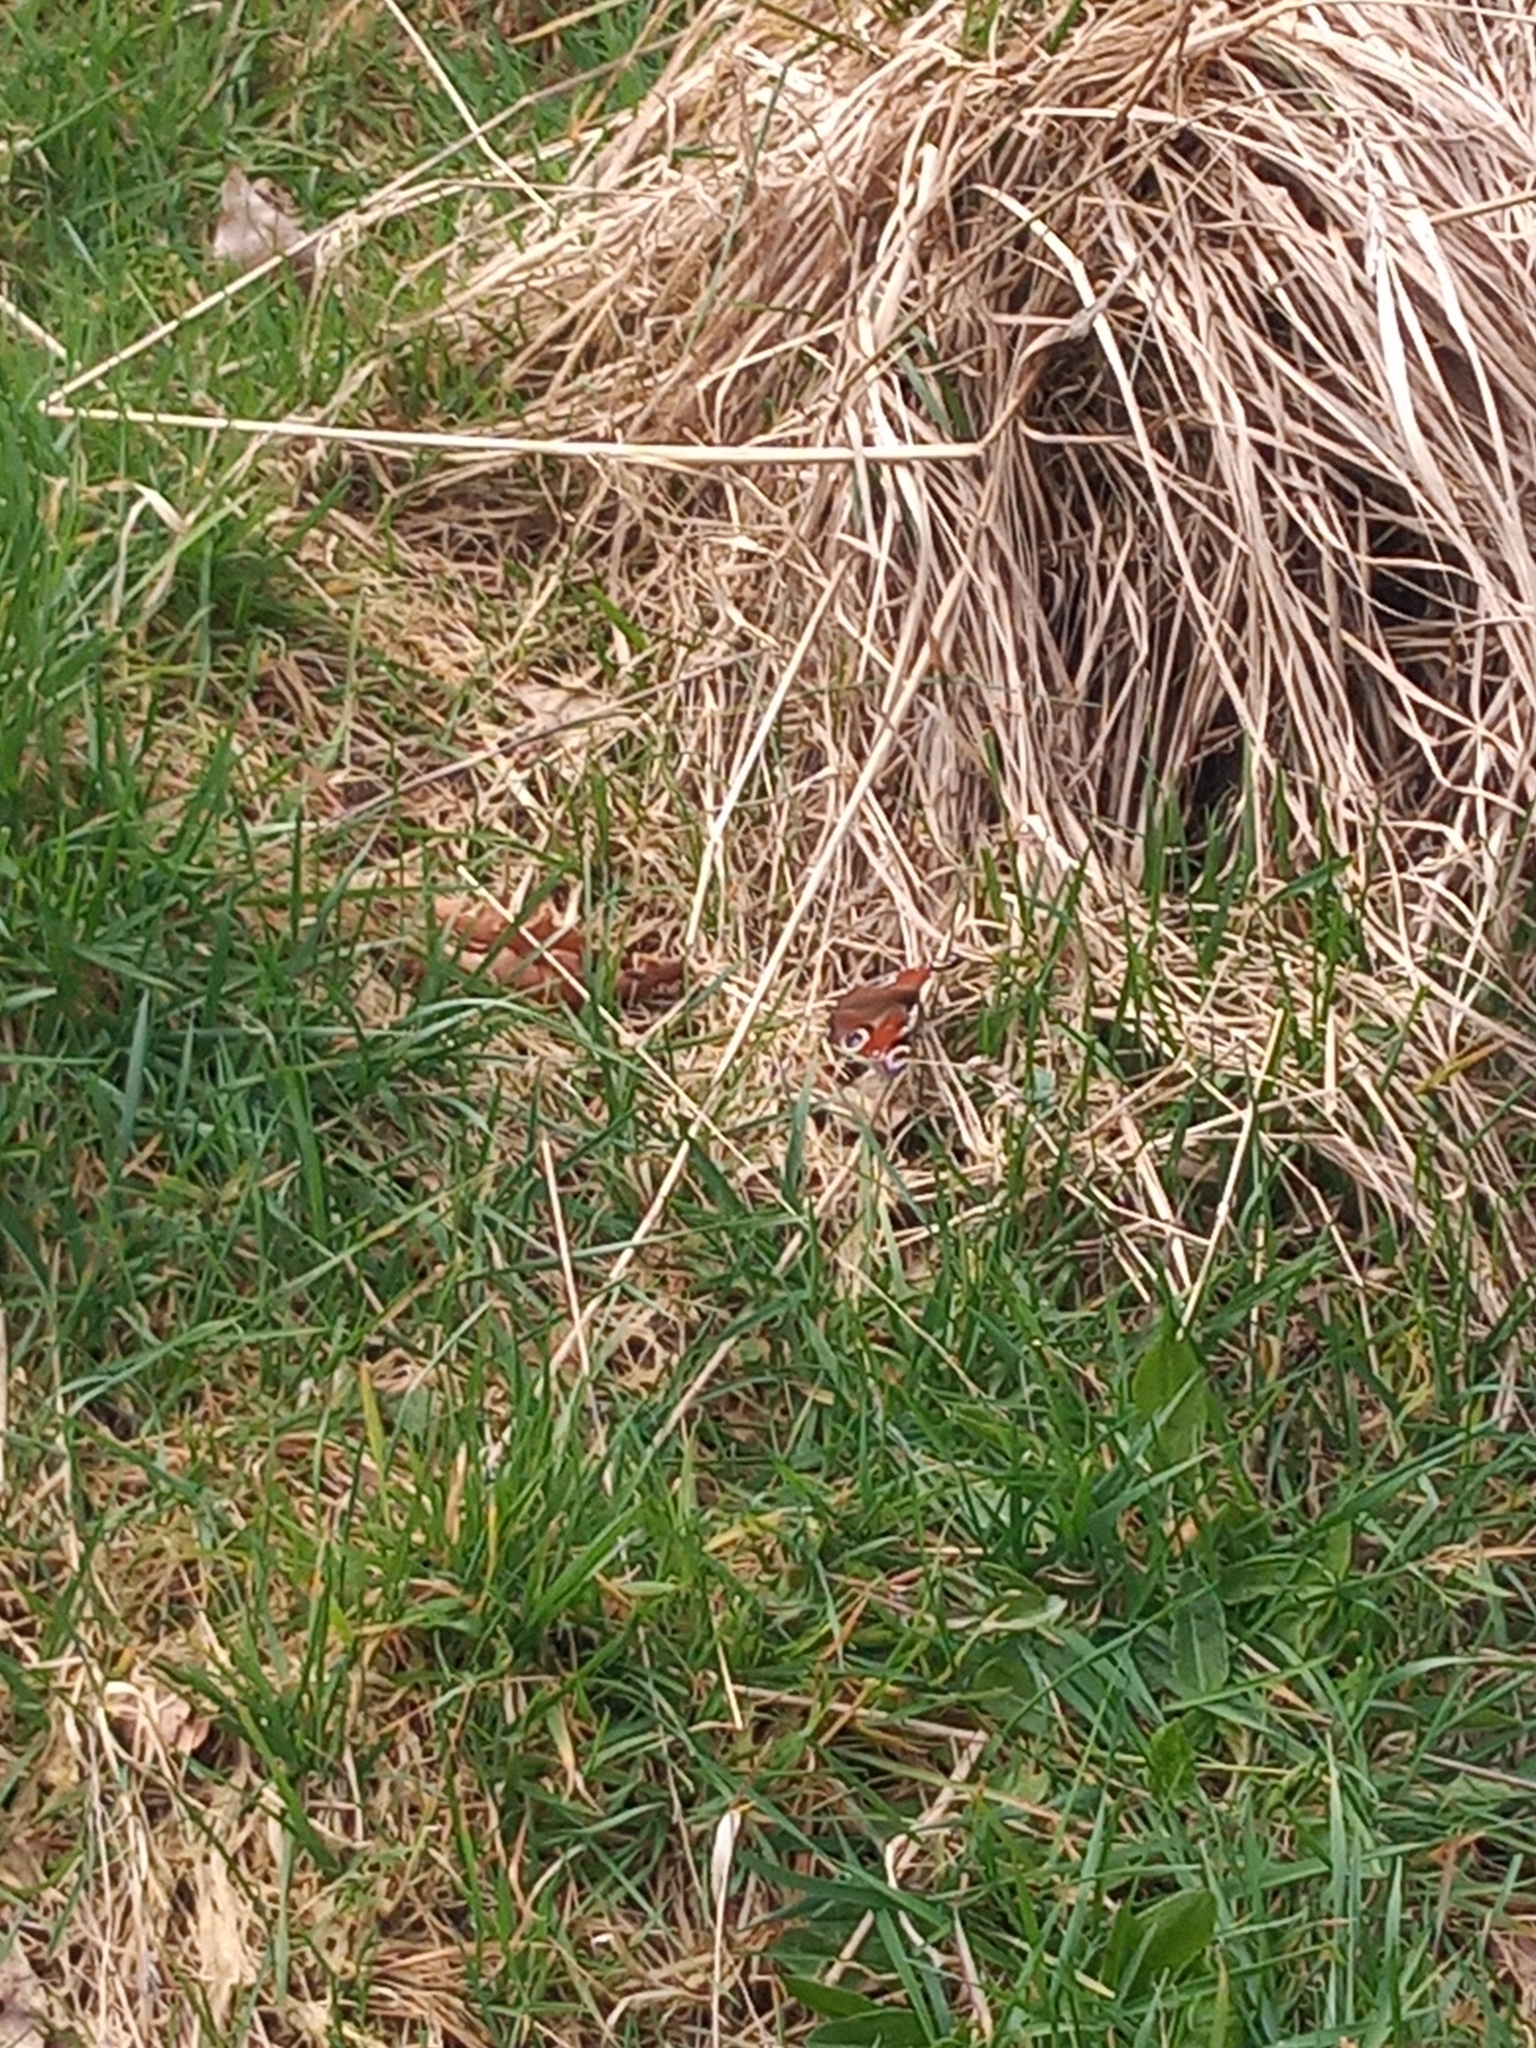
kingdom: Animalia
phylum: Arthropoda
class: Insecta
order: Lepidoptera
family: Nymphalidae
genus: Aglais
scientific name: Aglais io
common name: Peacock
